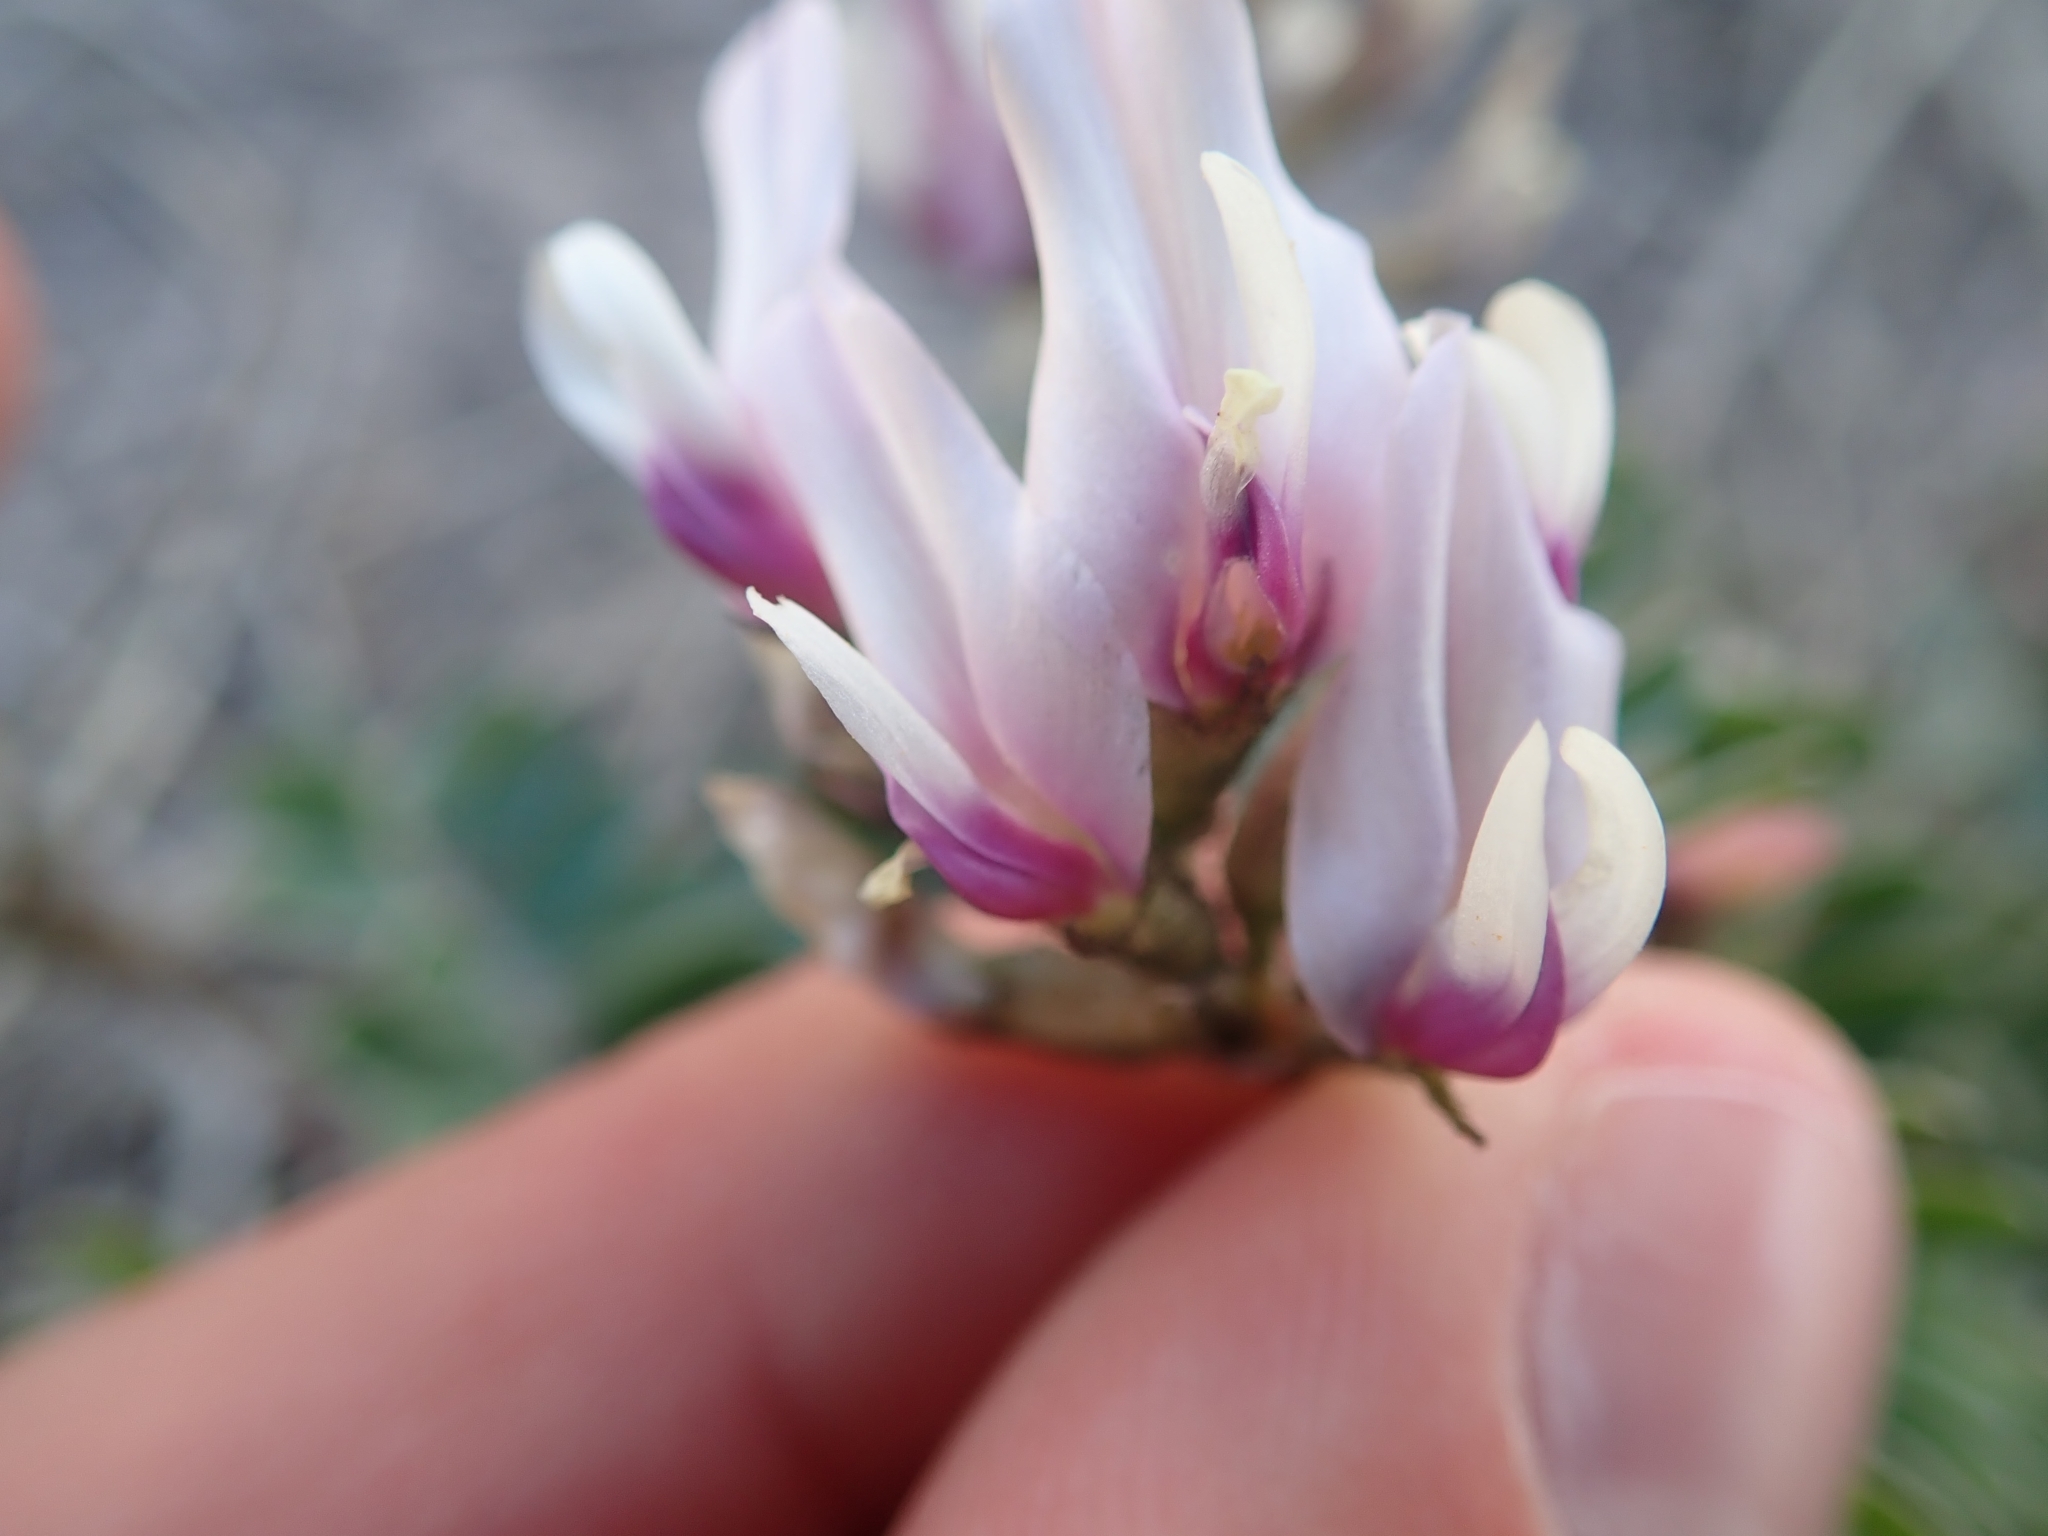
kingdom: Plantae
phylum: Tracheophyta
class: Magnoliopsida
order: Fabales
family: Fabaceae
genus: Astragalus
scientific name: Astragalus cibarius
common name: Browse milk-vetch
